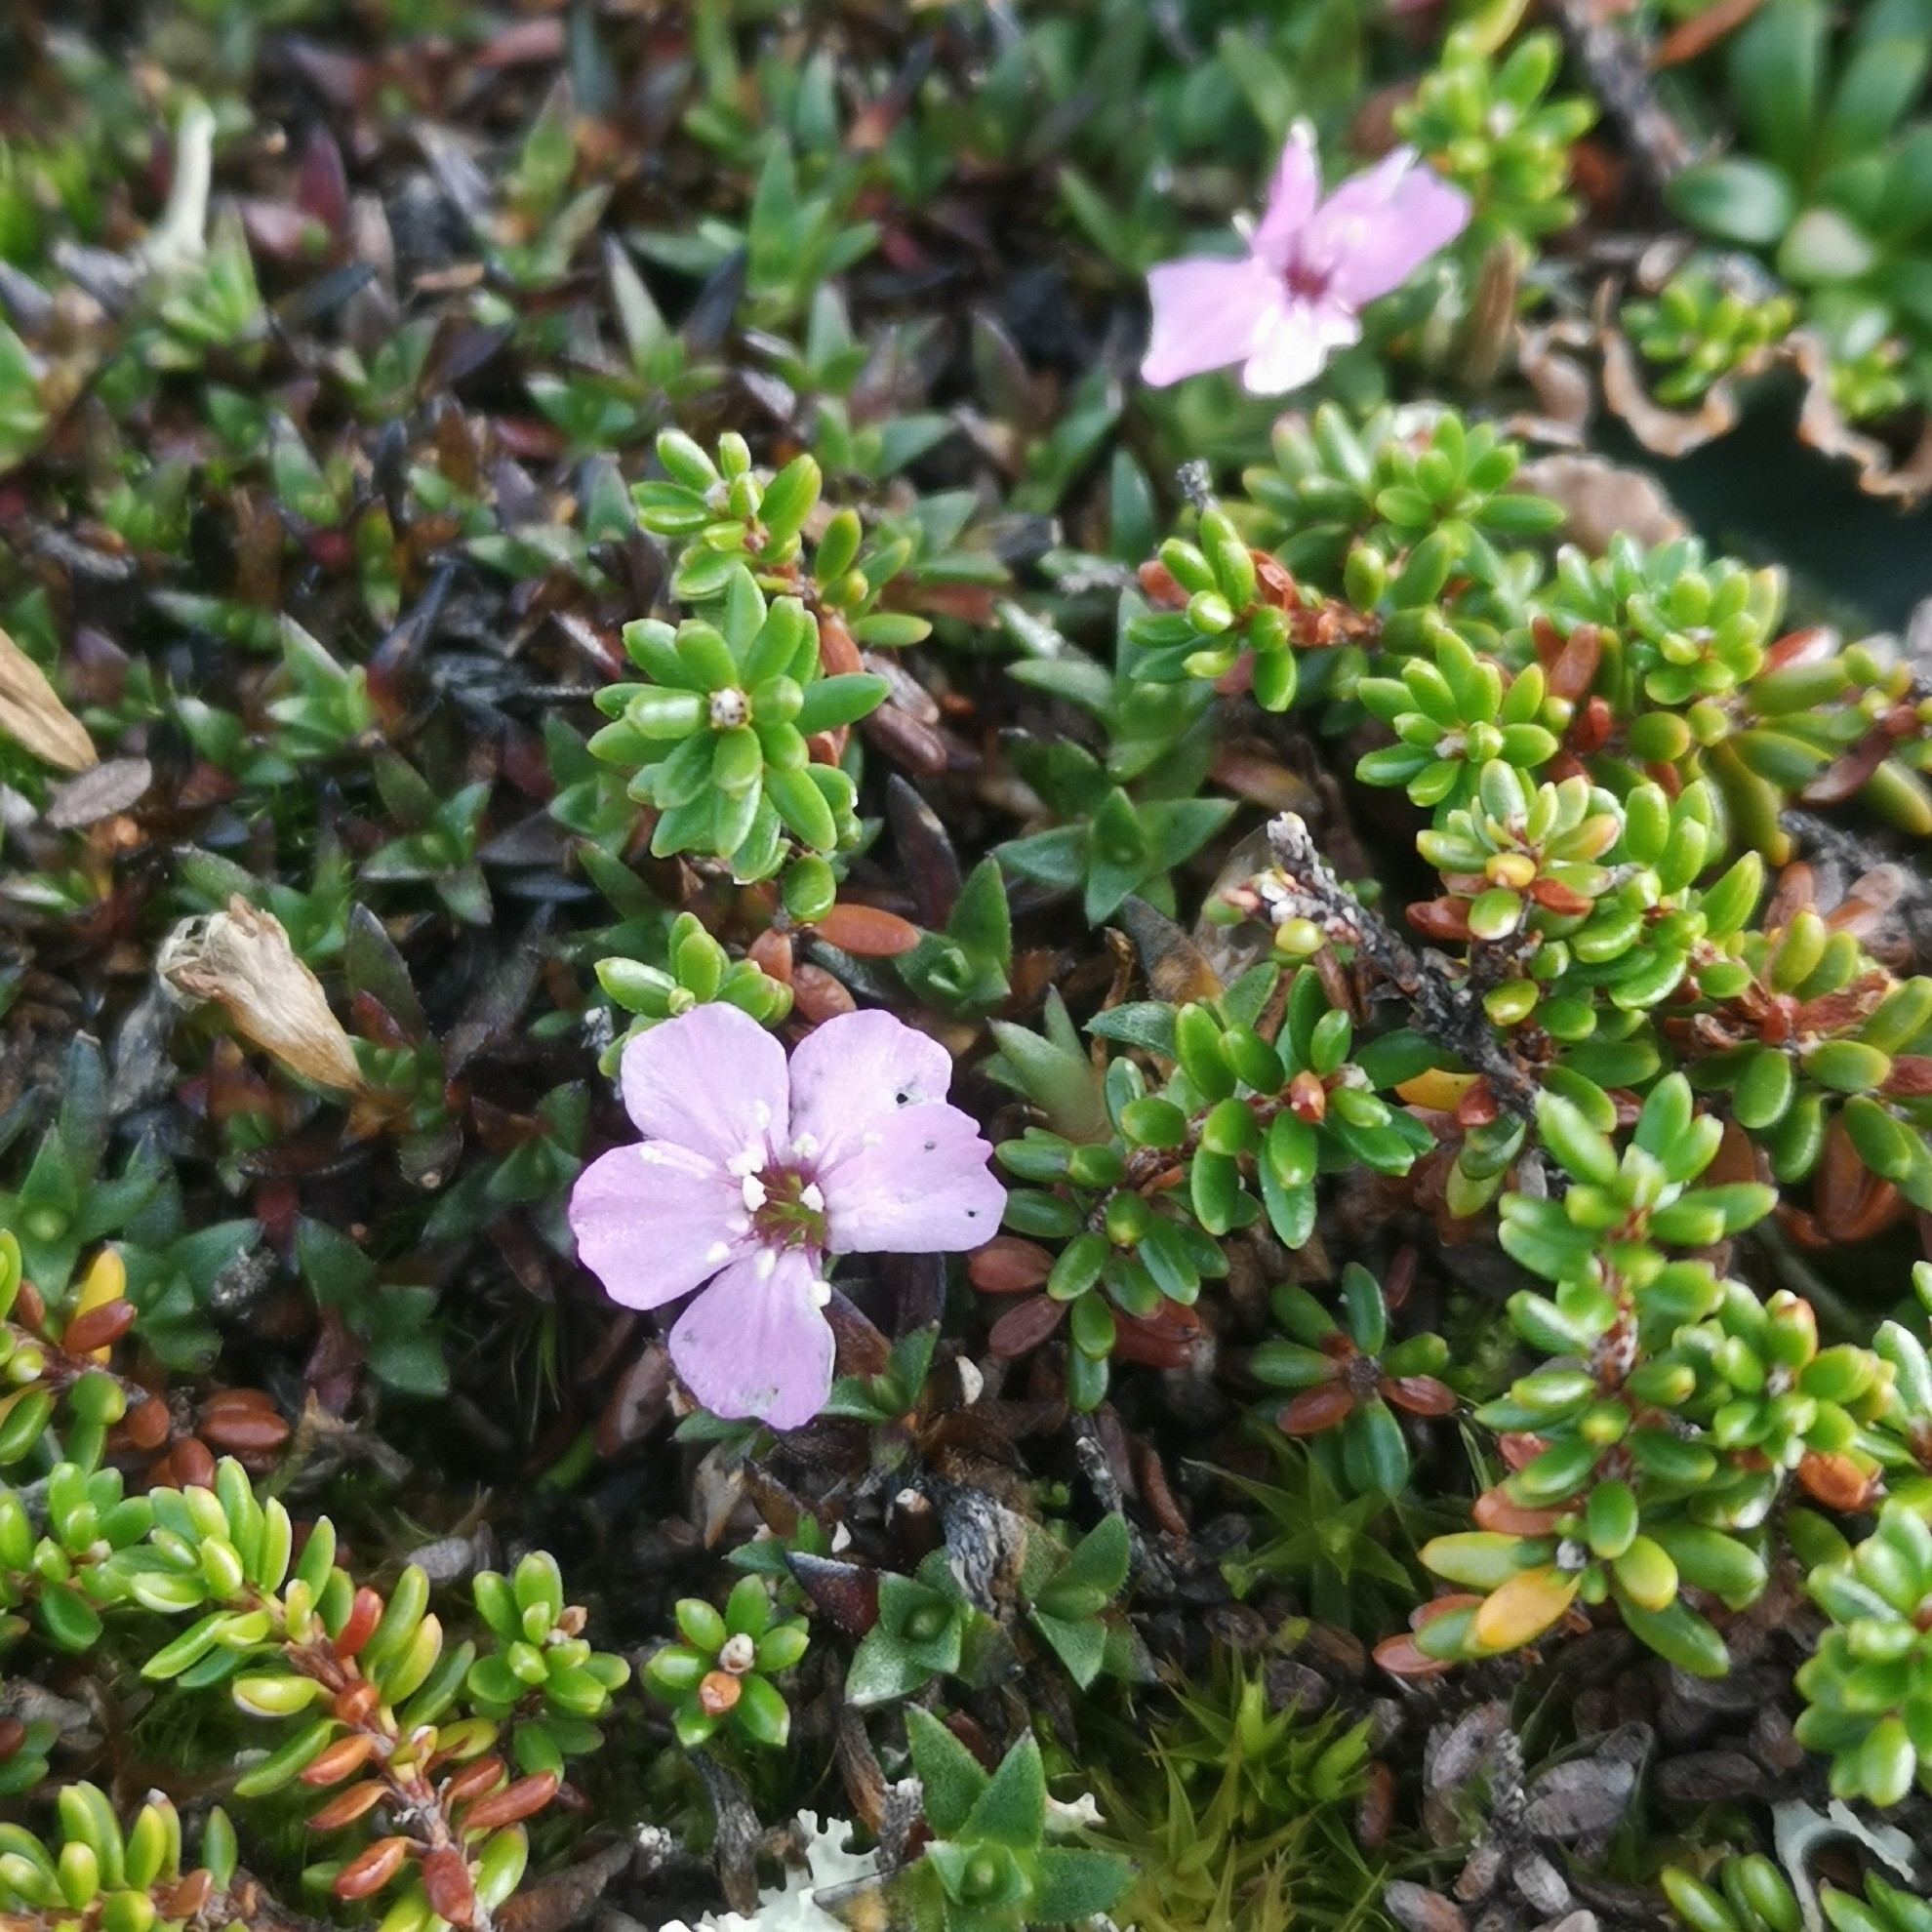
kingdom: Plantae
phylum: Tracheophyta
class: Magnoliopsida
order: Caryophyllales
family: Caryophyllaceae
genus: Silene
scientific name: Silene acaulis
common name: Moss campion
